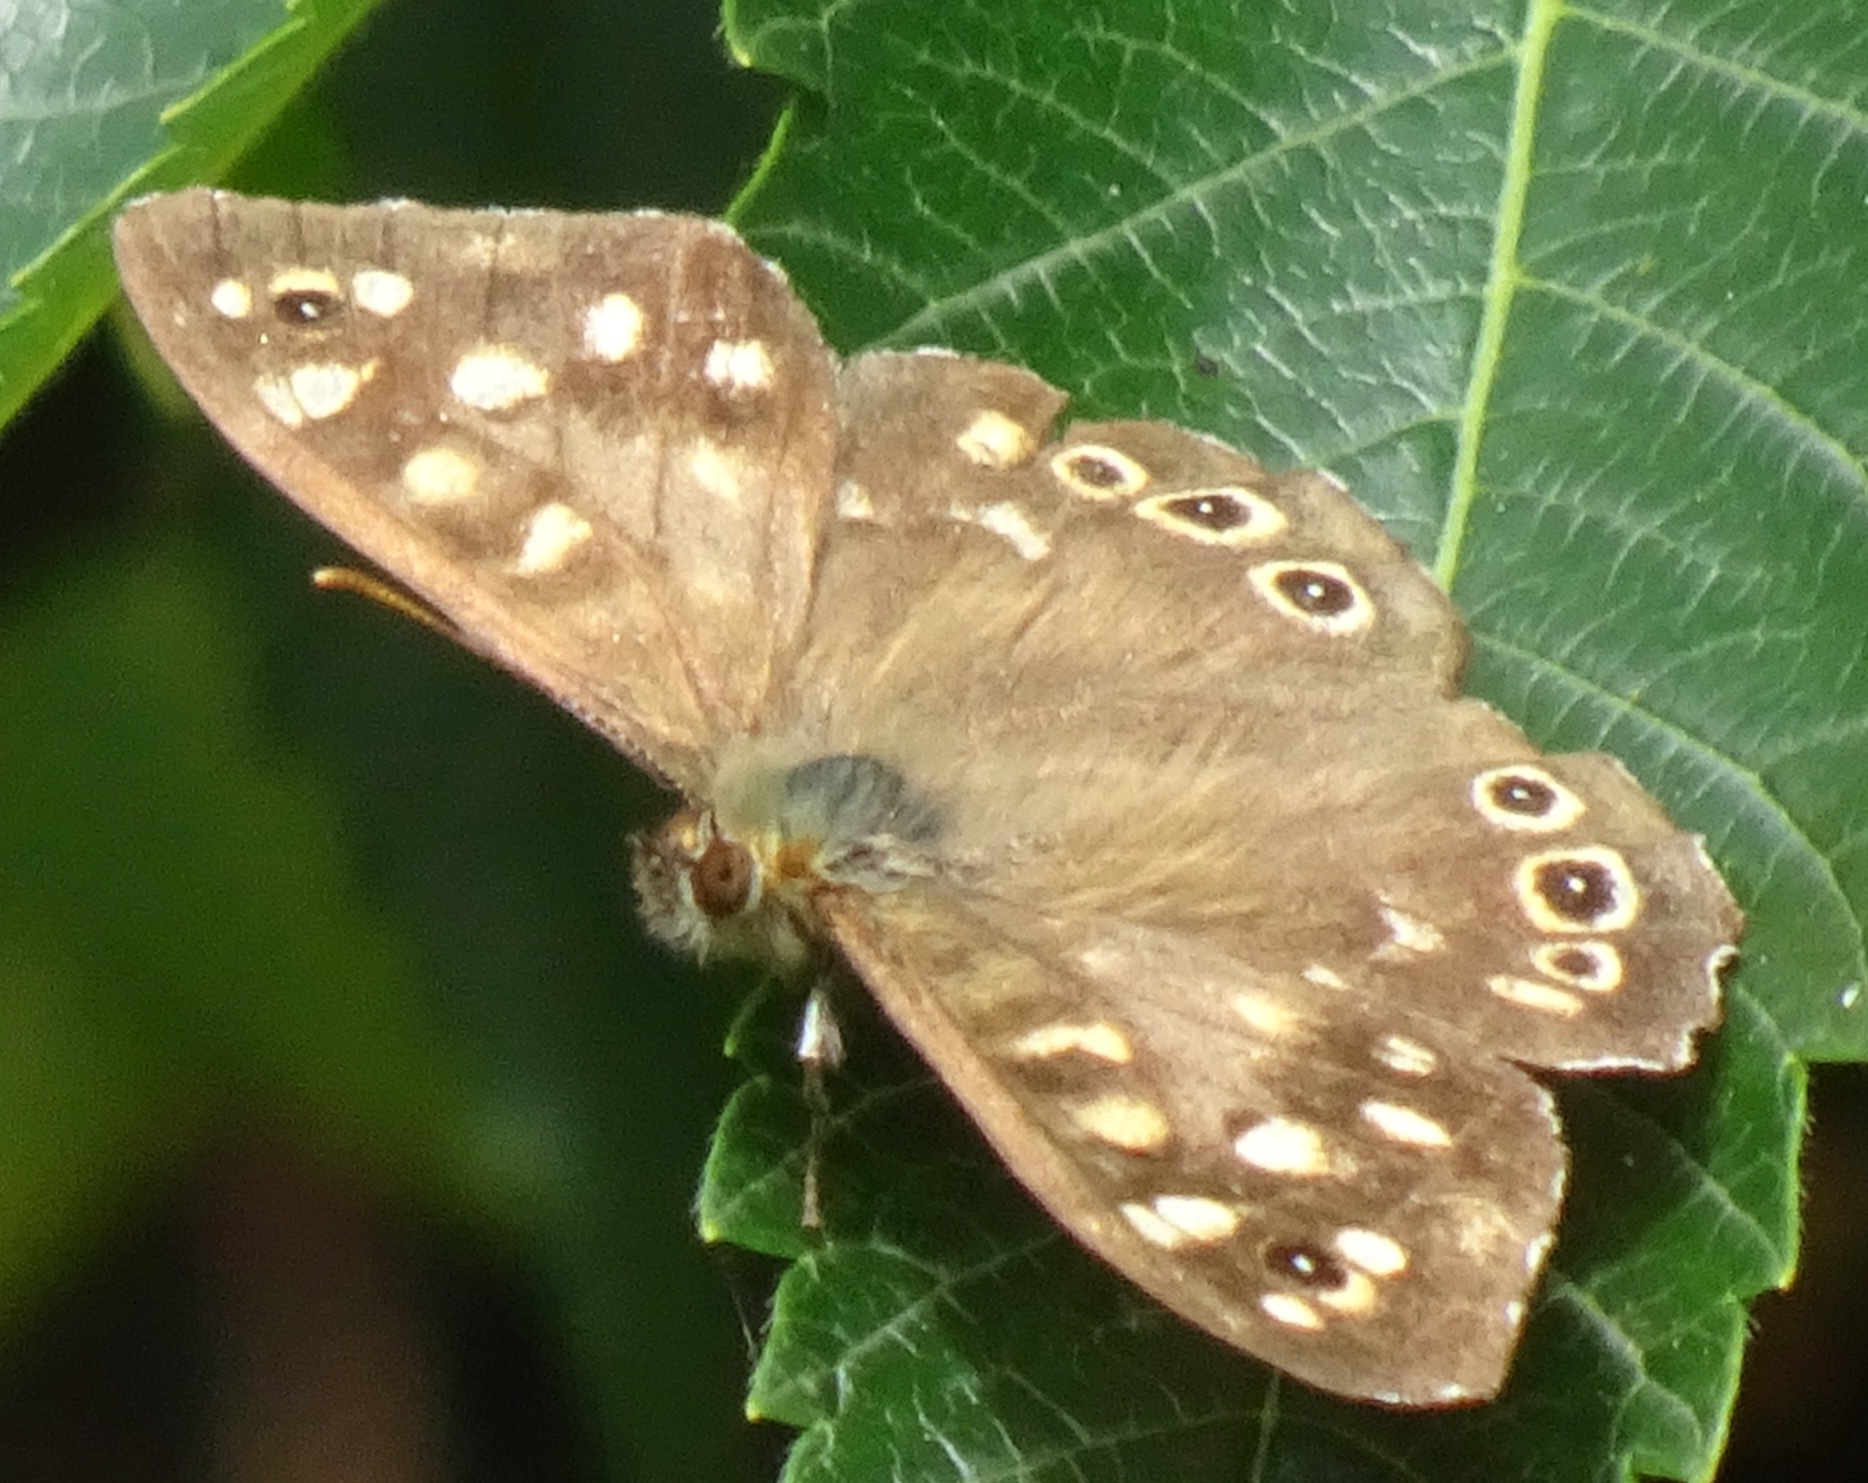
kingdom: Animalia
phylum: Arthropoda
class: Insecta
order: Lepidoptera
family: Nymphalidae
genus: Pararge
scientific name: Pararge aegeria
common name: Speckled wood
